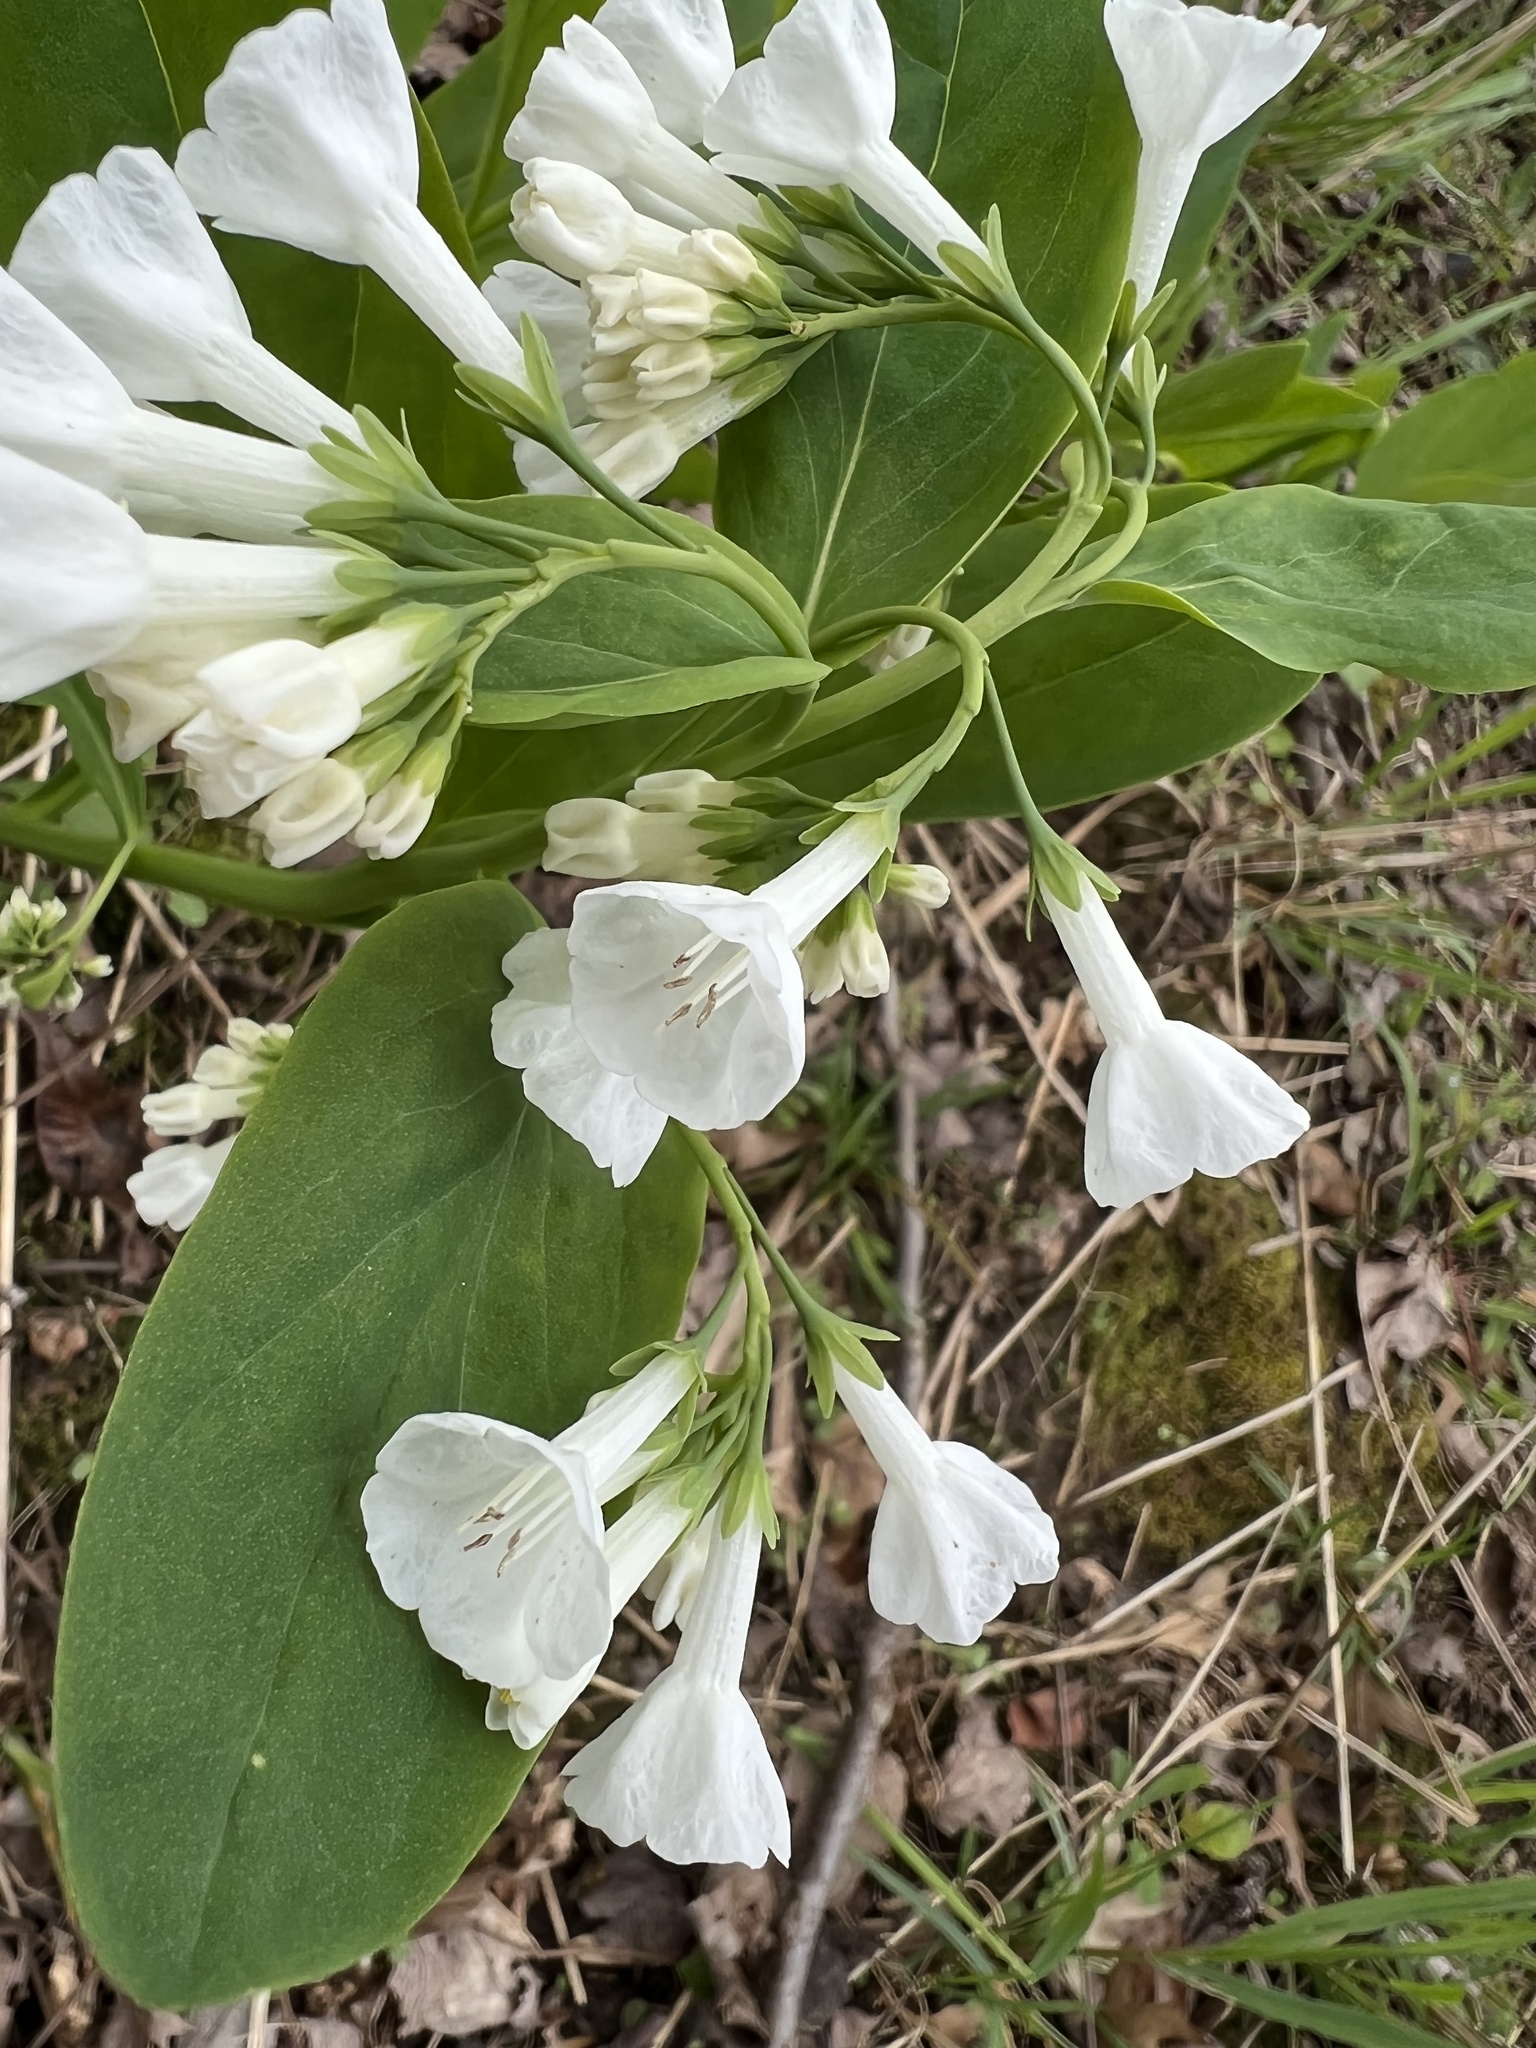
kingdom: Plantae
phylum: Tracheophyta
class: Magnoliopsida
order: Boraginales
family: Boraginaceae
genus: Mertensia
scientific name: Mertensia virginica
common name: Virginia bluebells
